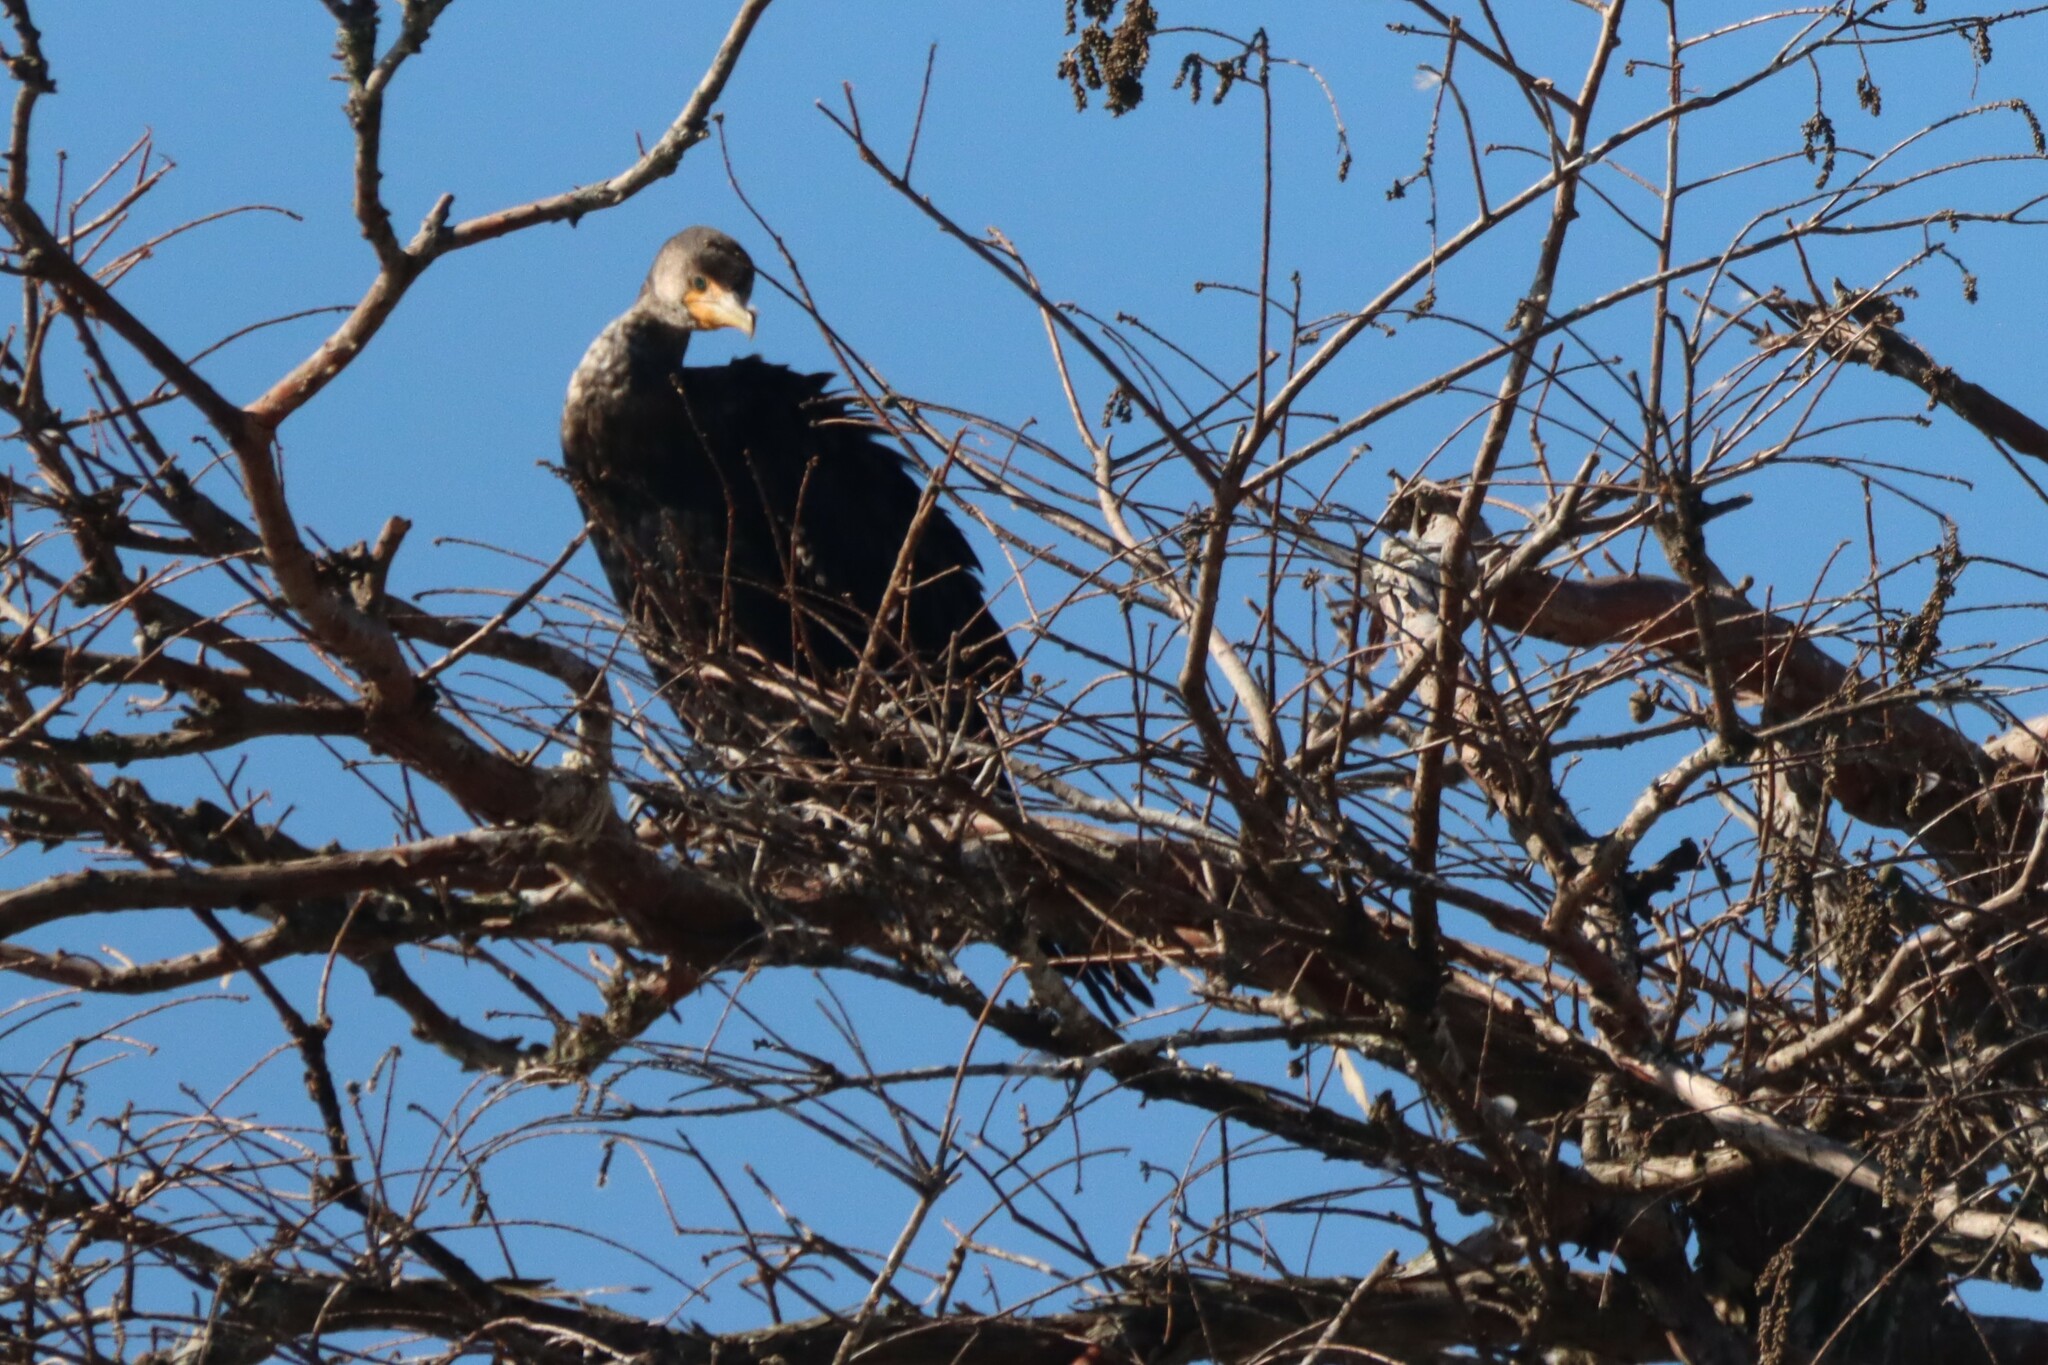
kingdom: Animalia
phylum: Chordata
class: Aves
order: Suliformes
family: Phalacrocoracidae
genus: Phalacrocorax
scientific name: Phalacrocorax auritus
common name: Double-crested cormorant
